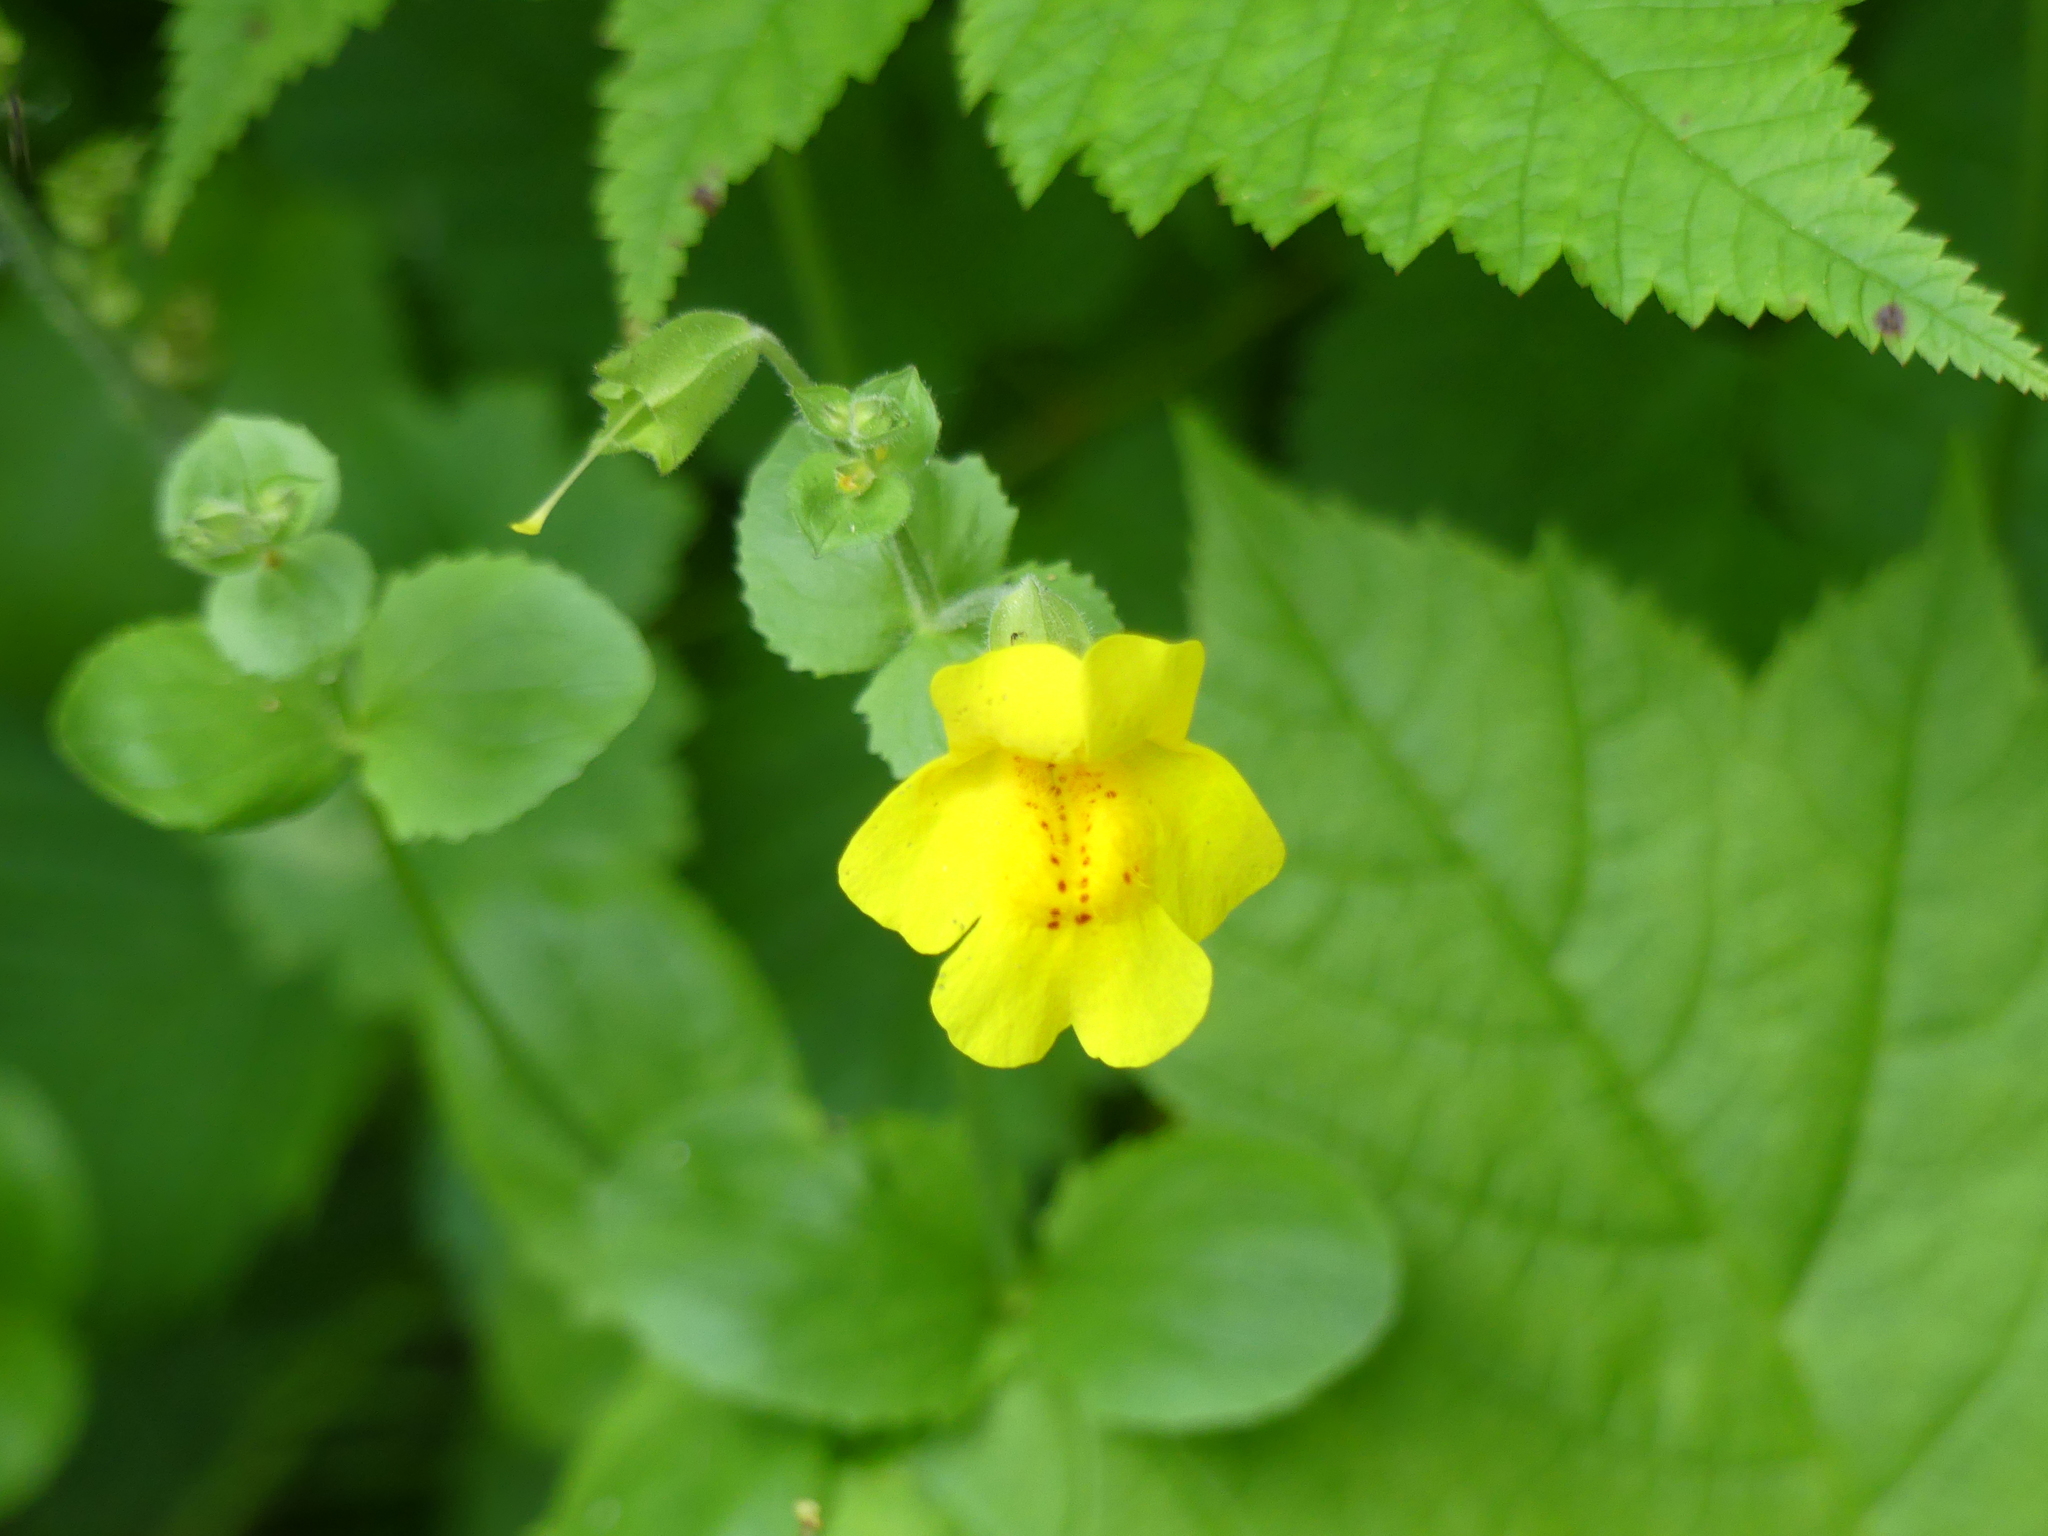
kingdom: Plantae
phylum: Tracheophyta
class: Magnoliopsida
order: Lamiales
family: Phrymaceae
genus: Erythranthe
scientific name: Erythranthe guttata
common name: Monkeyflower
